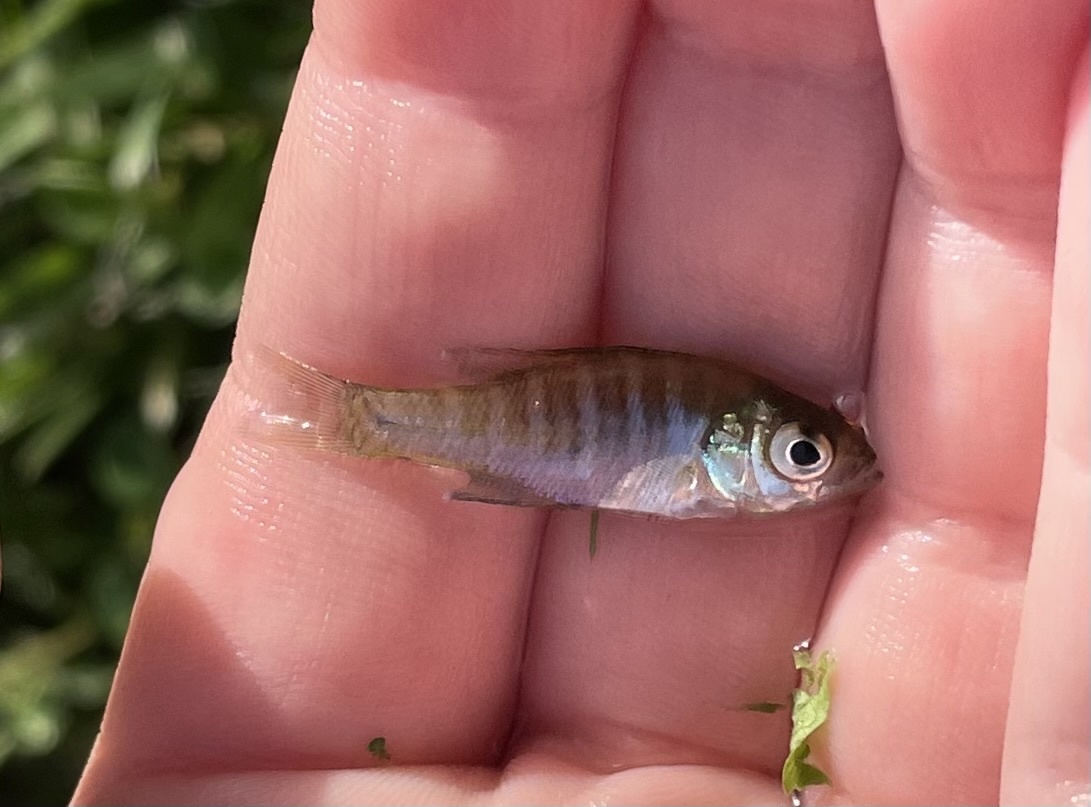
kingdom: Animalia
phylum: Chordata
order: Perciformes
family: Centrarchidae
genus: Lepomis
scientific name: Lepomis macrochirus
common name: Bluegill
